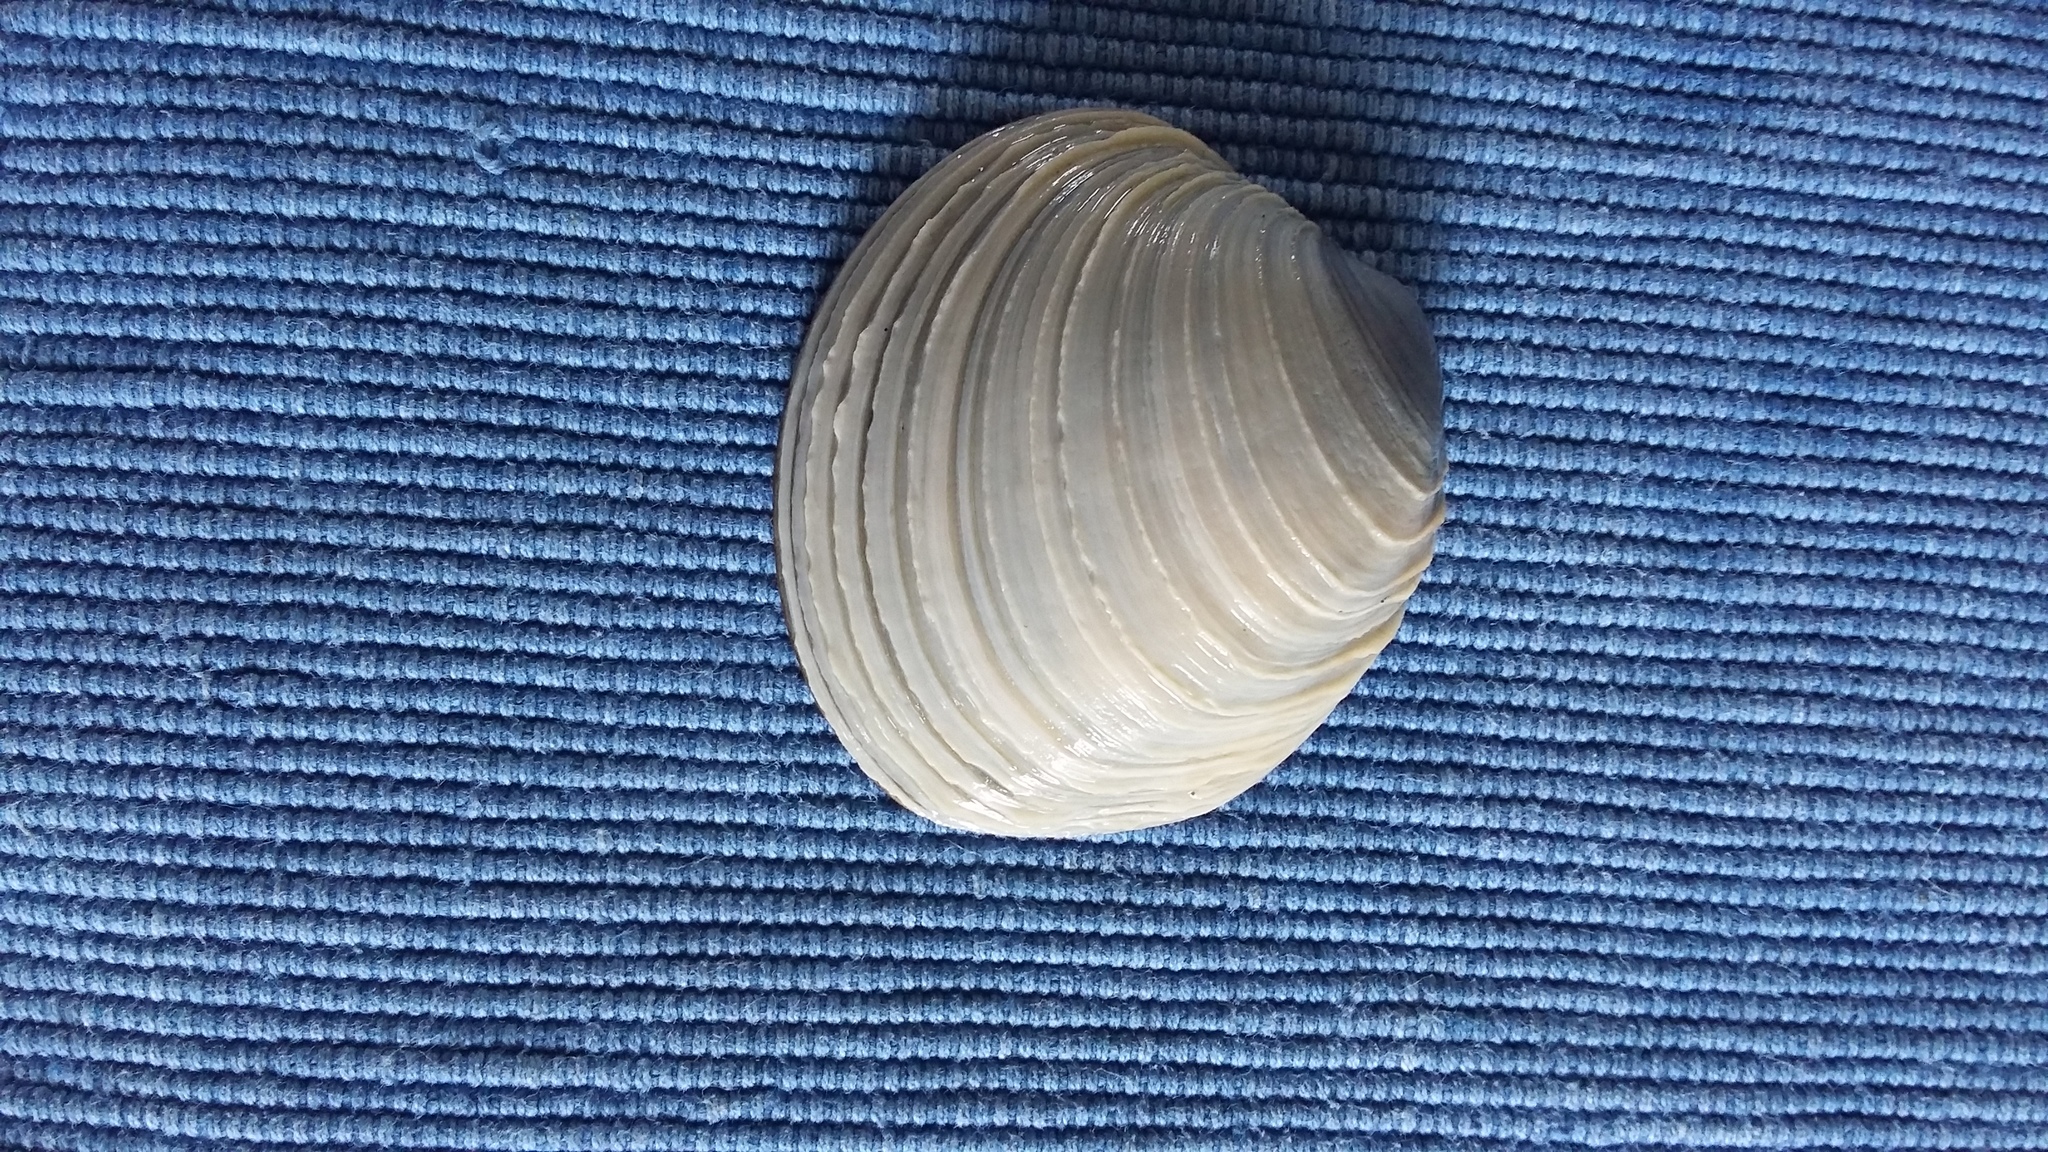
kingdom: Animalia
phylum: Mollusca
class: Bivalvia
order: Venerida
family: Veneridae
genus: Bassina
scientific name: Bassina yatei
